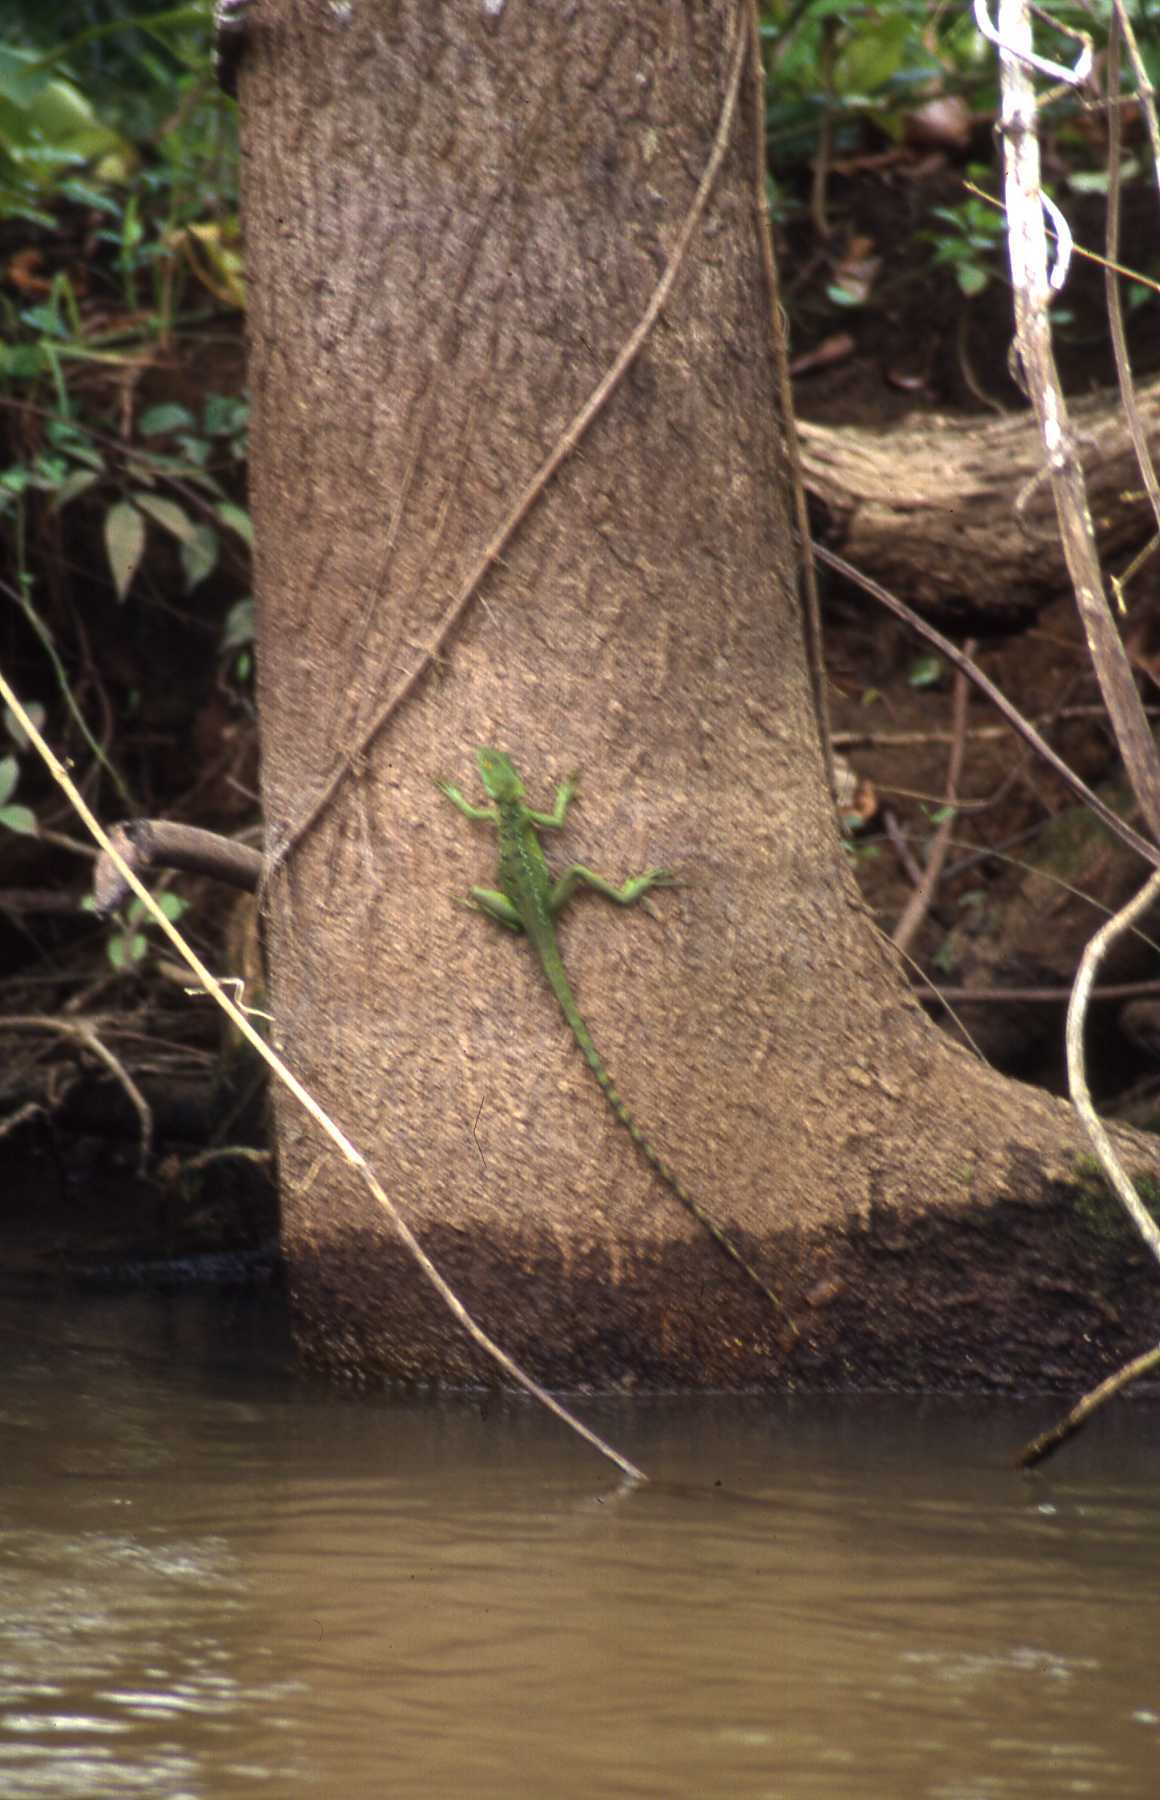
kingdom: Animalia
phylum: Chordata
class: Squamata
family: Corytophanidae
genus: Basiliscus
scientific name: Basiliscus plumifrons
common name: Green basilisk
